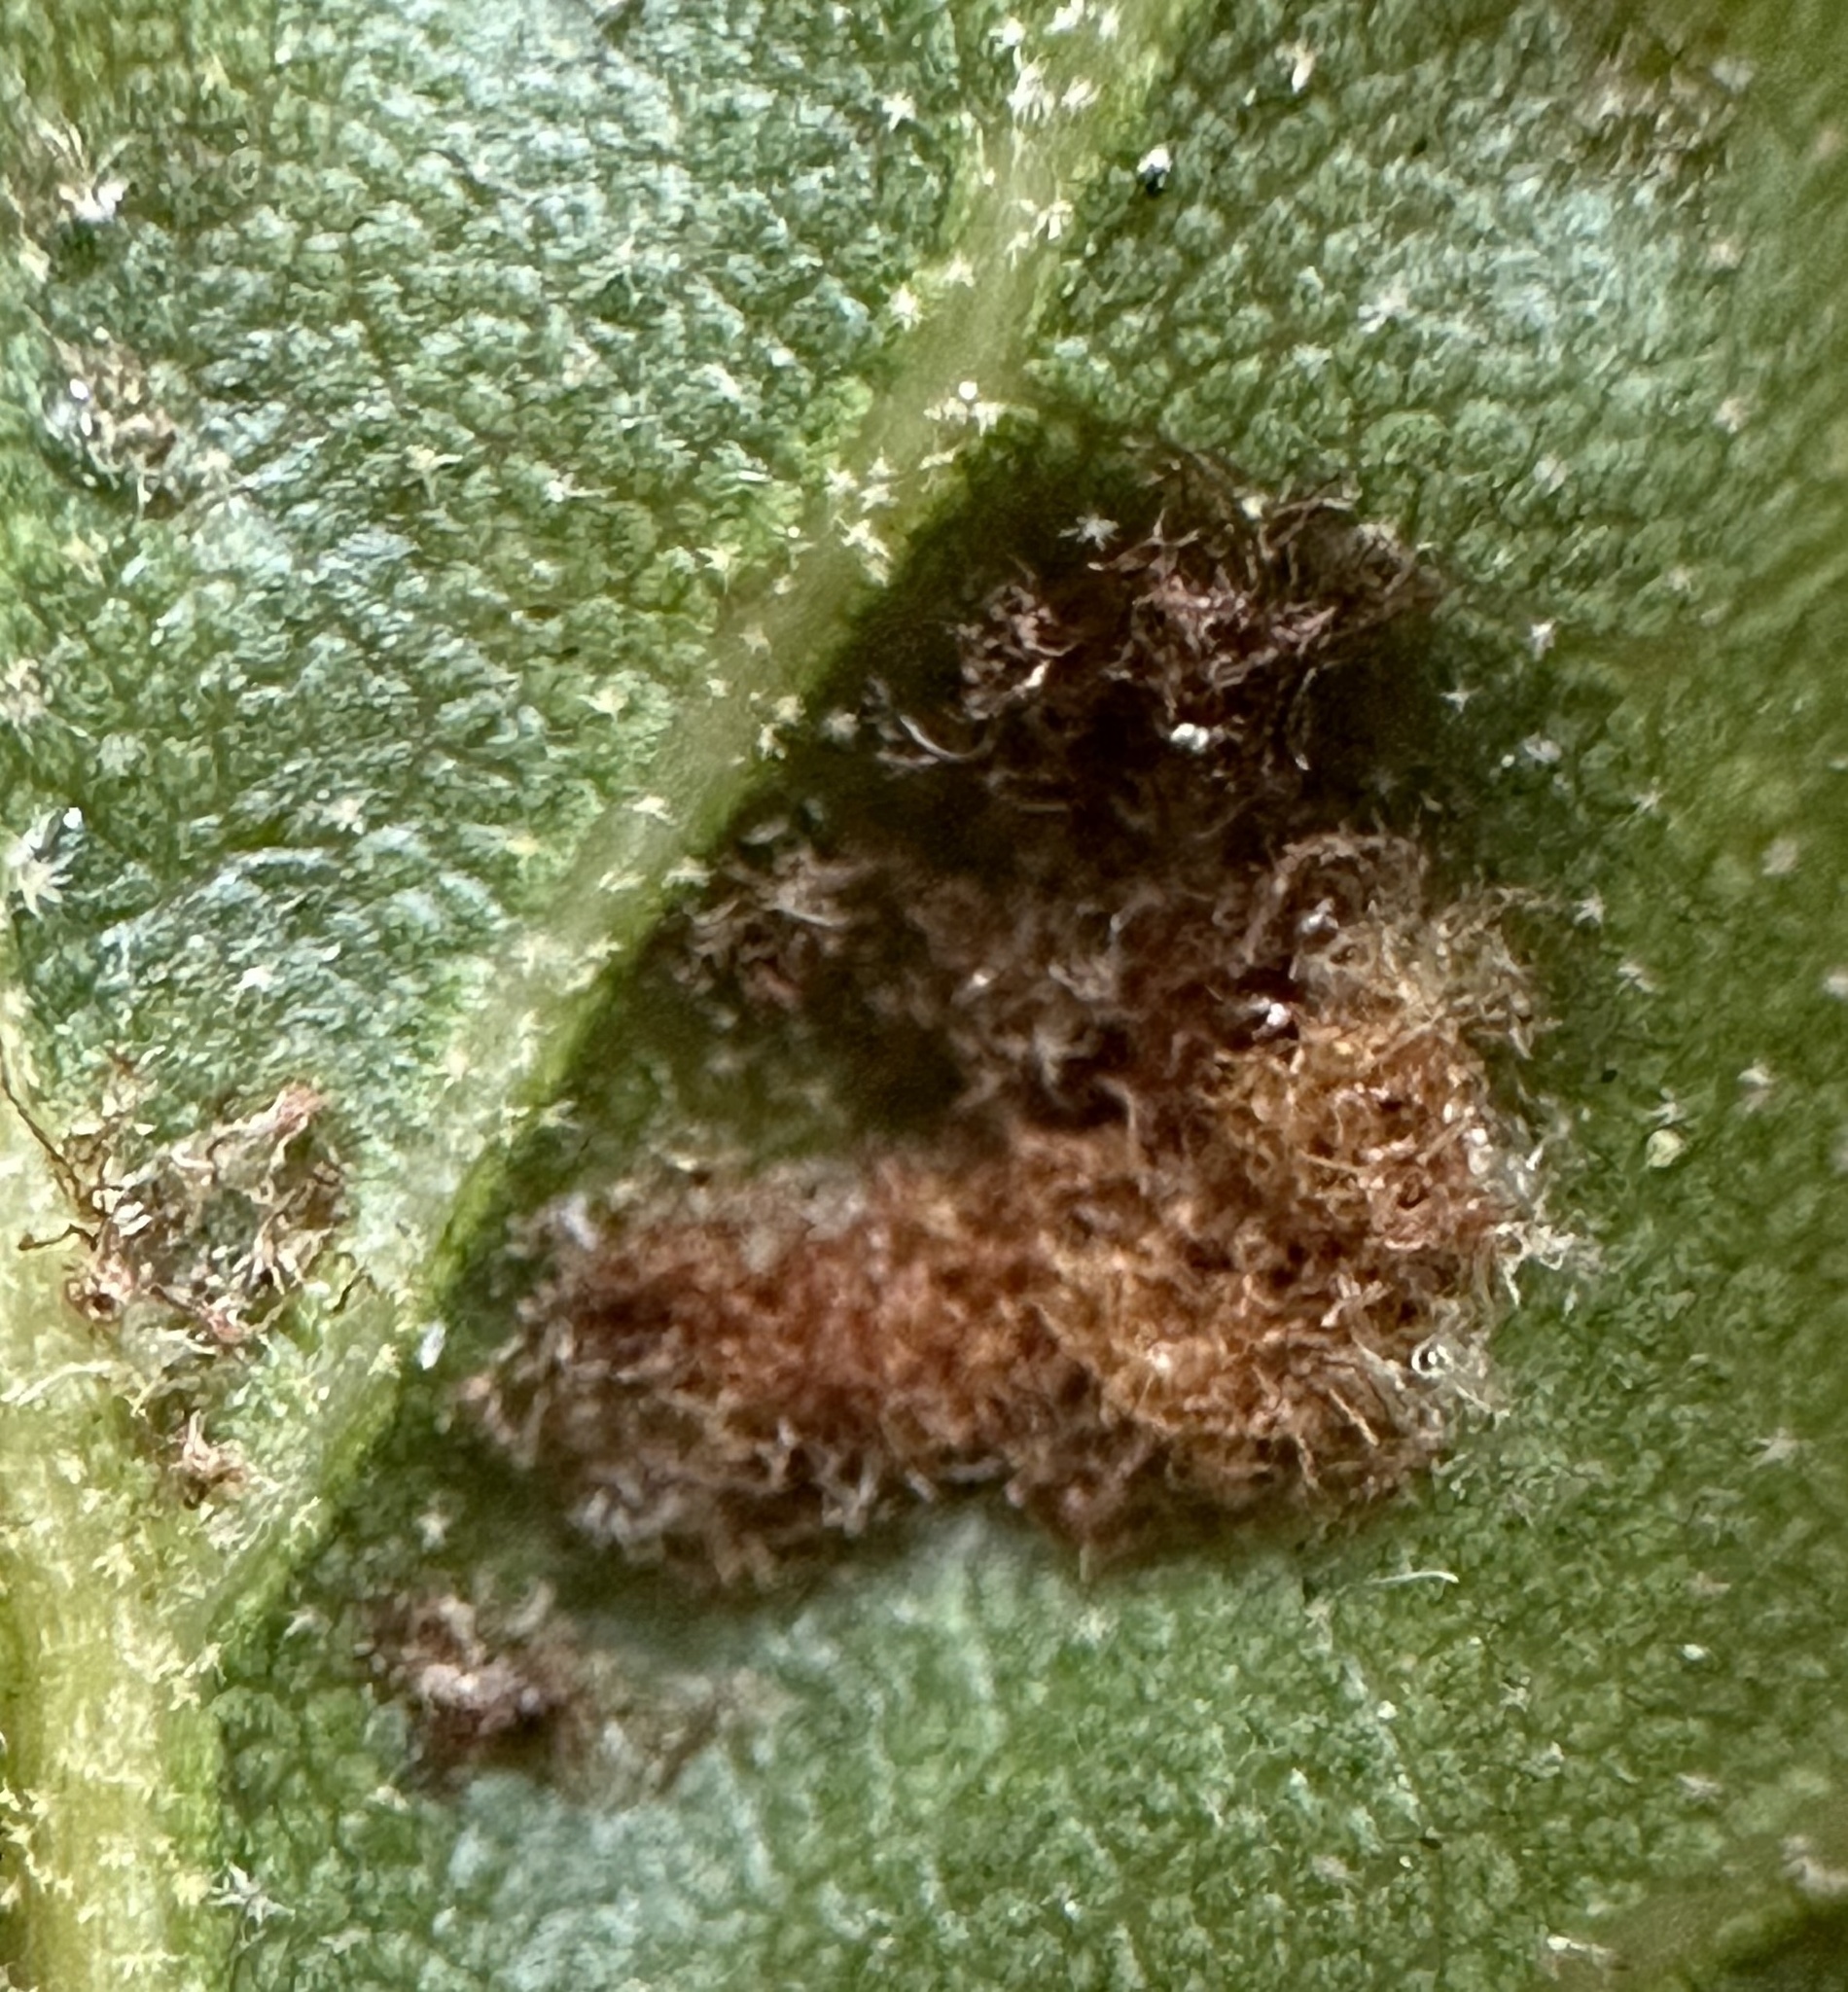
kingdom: Animalia
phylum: Arthropoda
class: Arachnida
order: Trombidiformes
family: Eriophyidae
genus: Aceria
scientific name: Aceria
